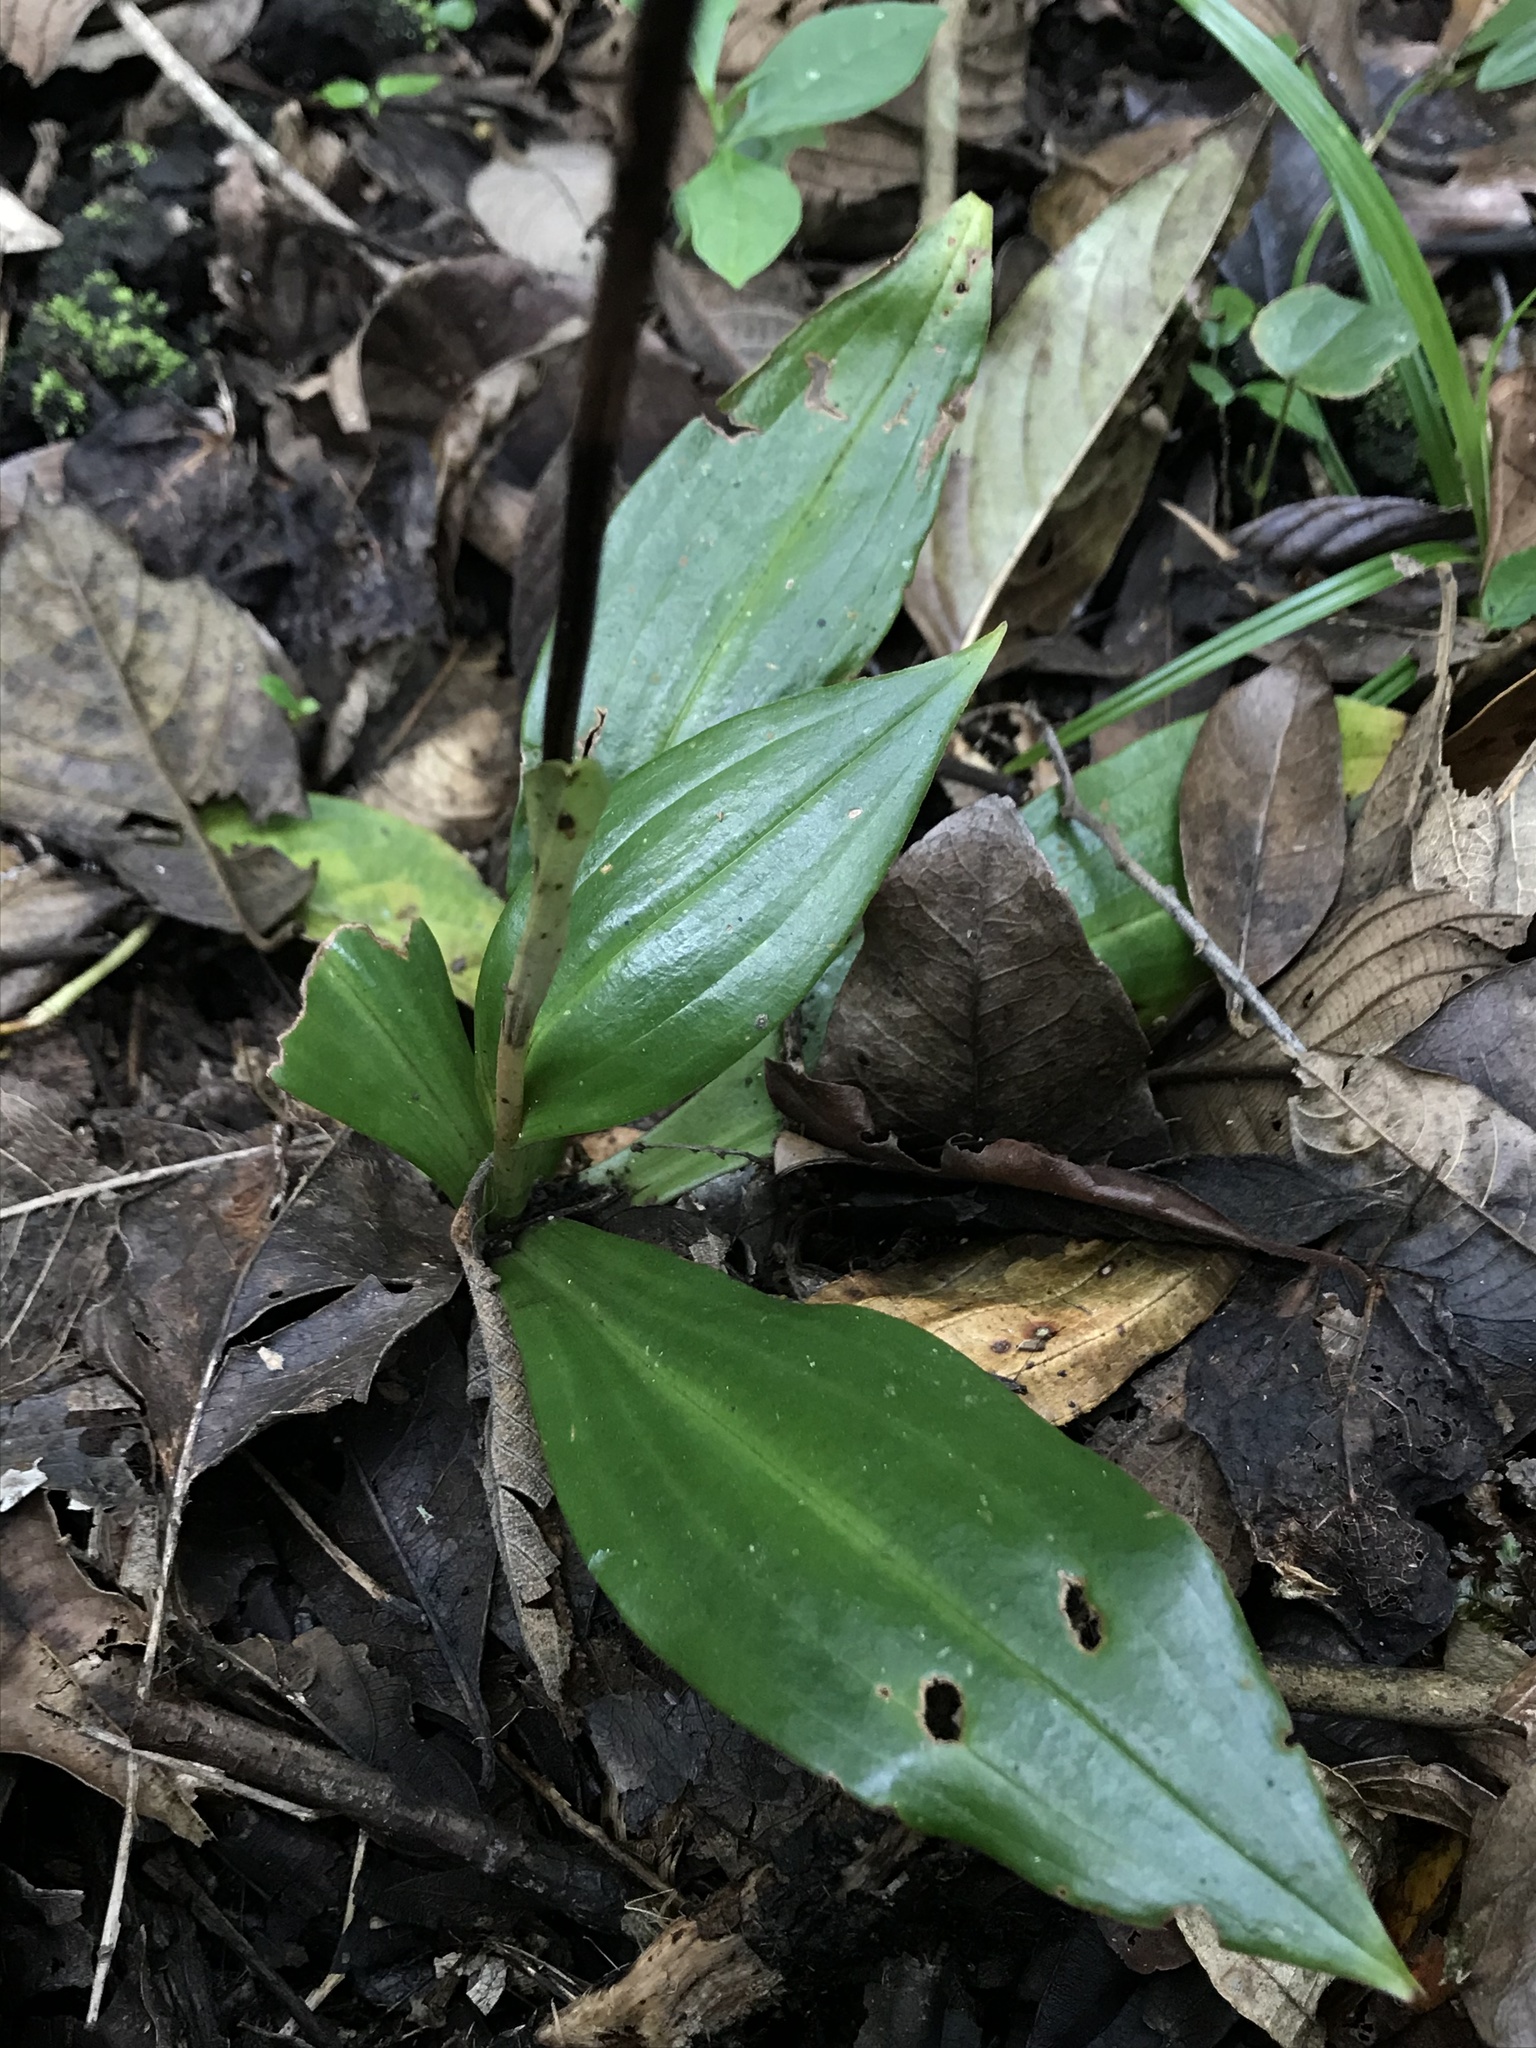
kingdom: Plantae
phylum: Tracheophyta
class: Liliopsida
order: Asparagales
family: Orchidaceae
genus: Prescottia
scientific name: Prescottia stachyodes
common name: Mountain prescott orchid
